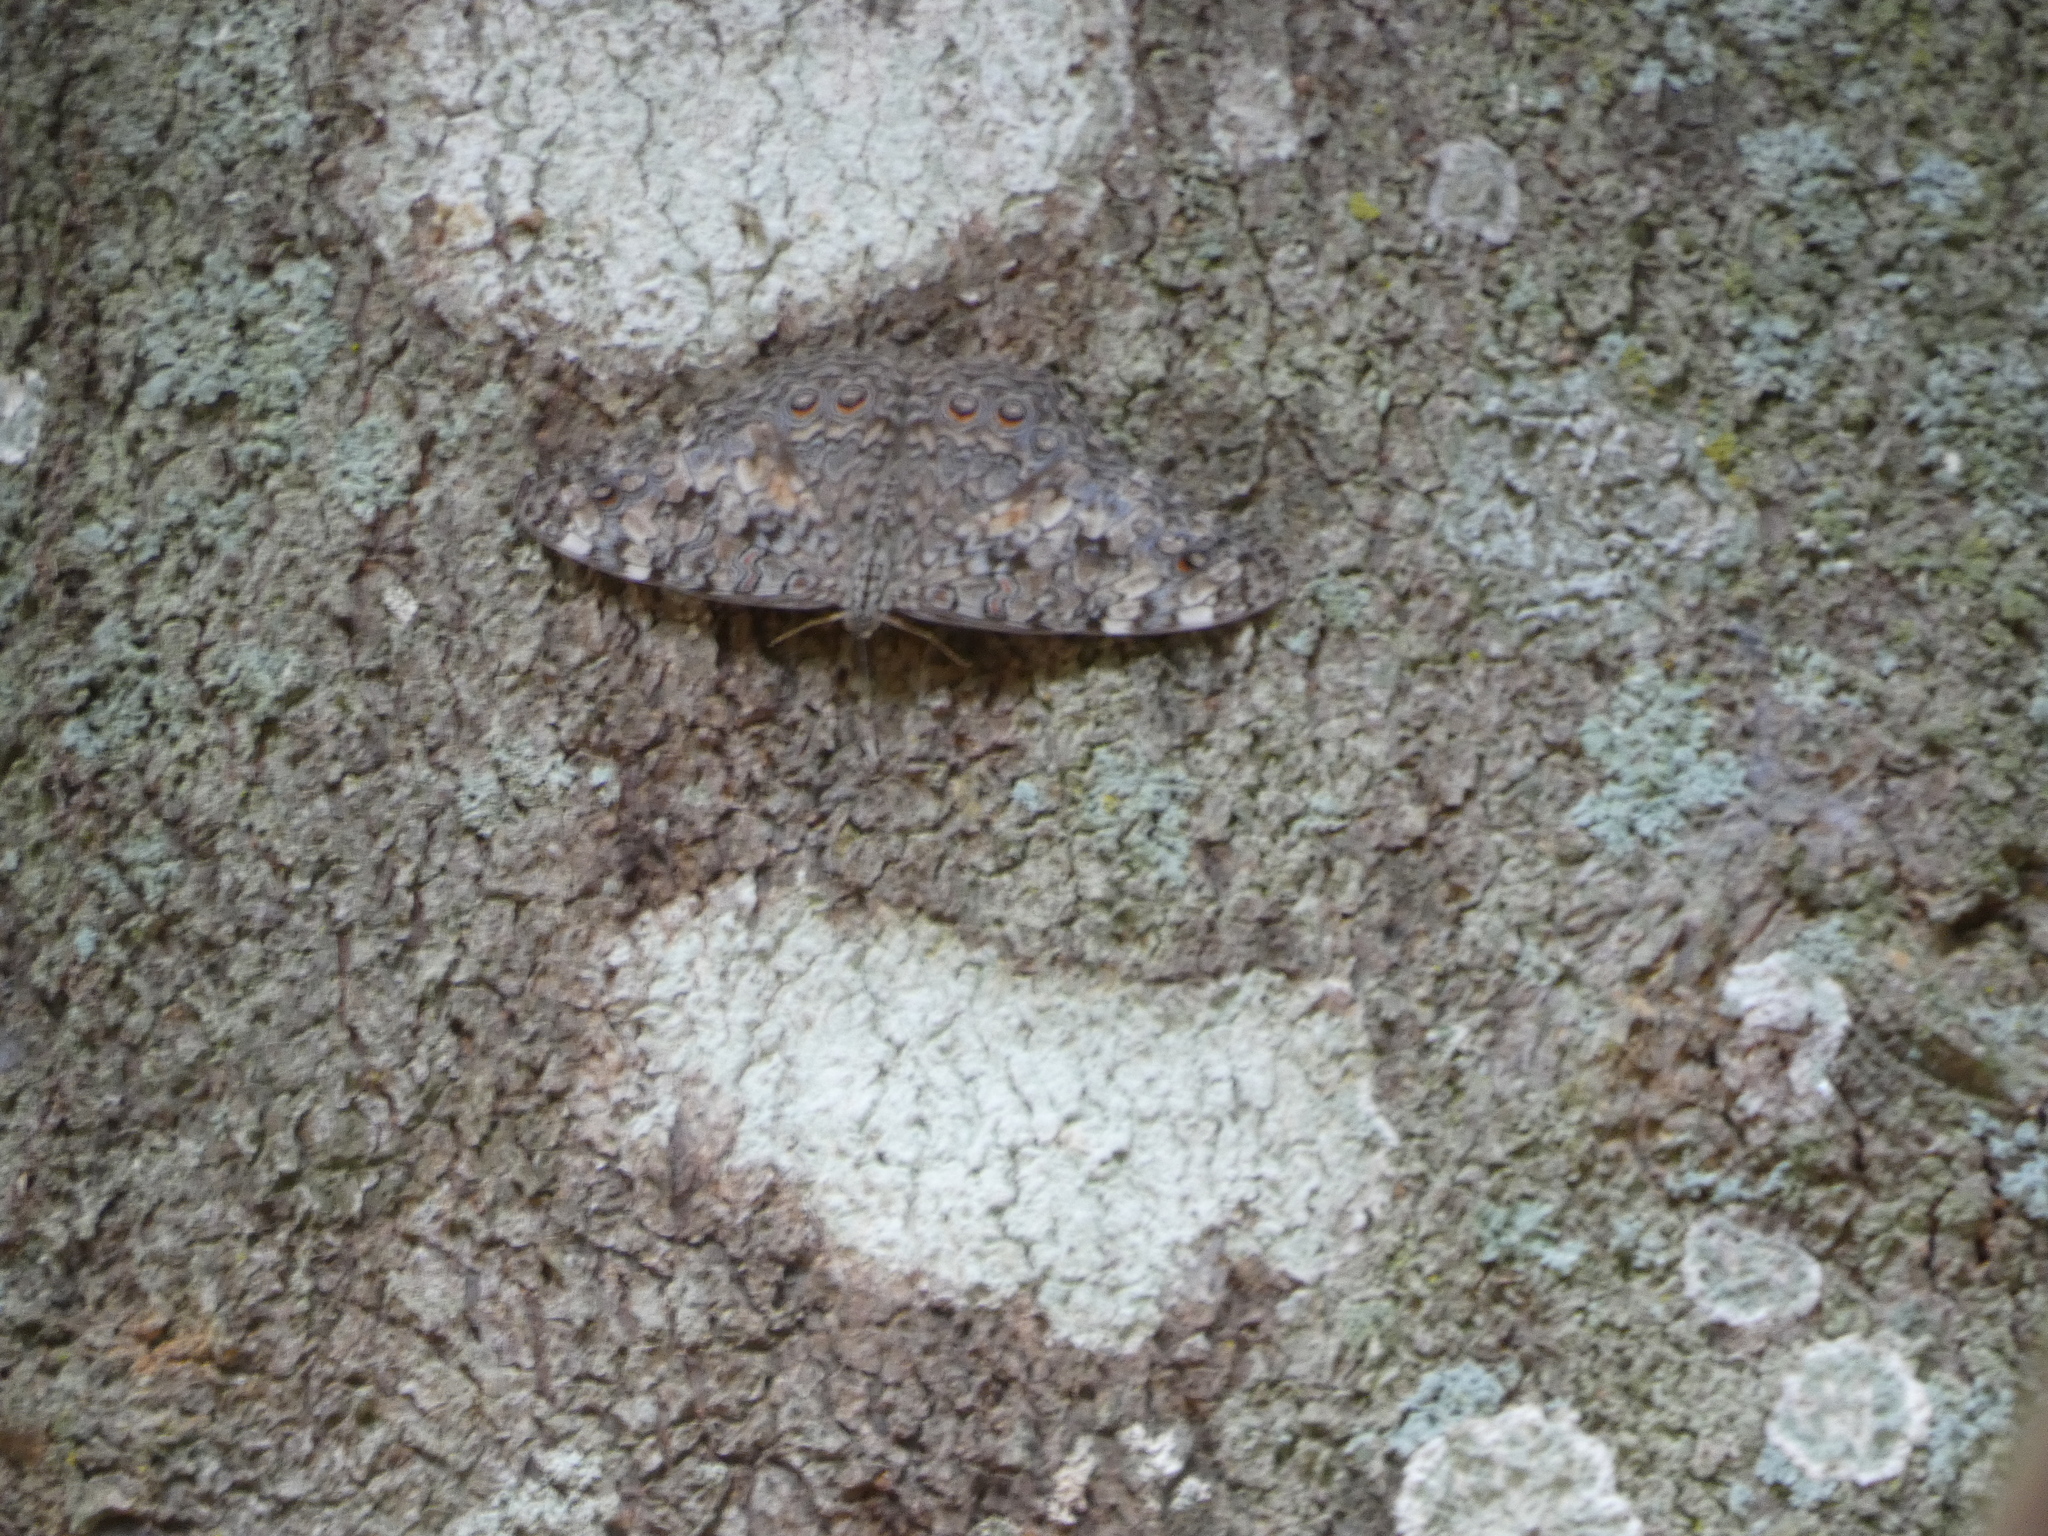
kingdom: Animalia
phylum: Arthropoda
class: Insecta
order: Lepidoptera
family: Nymphalidae
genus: Hamadryas
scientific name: Hamadryas februa
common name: Gray cracker
